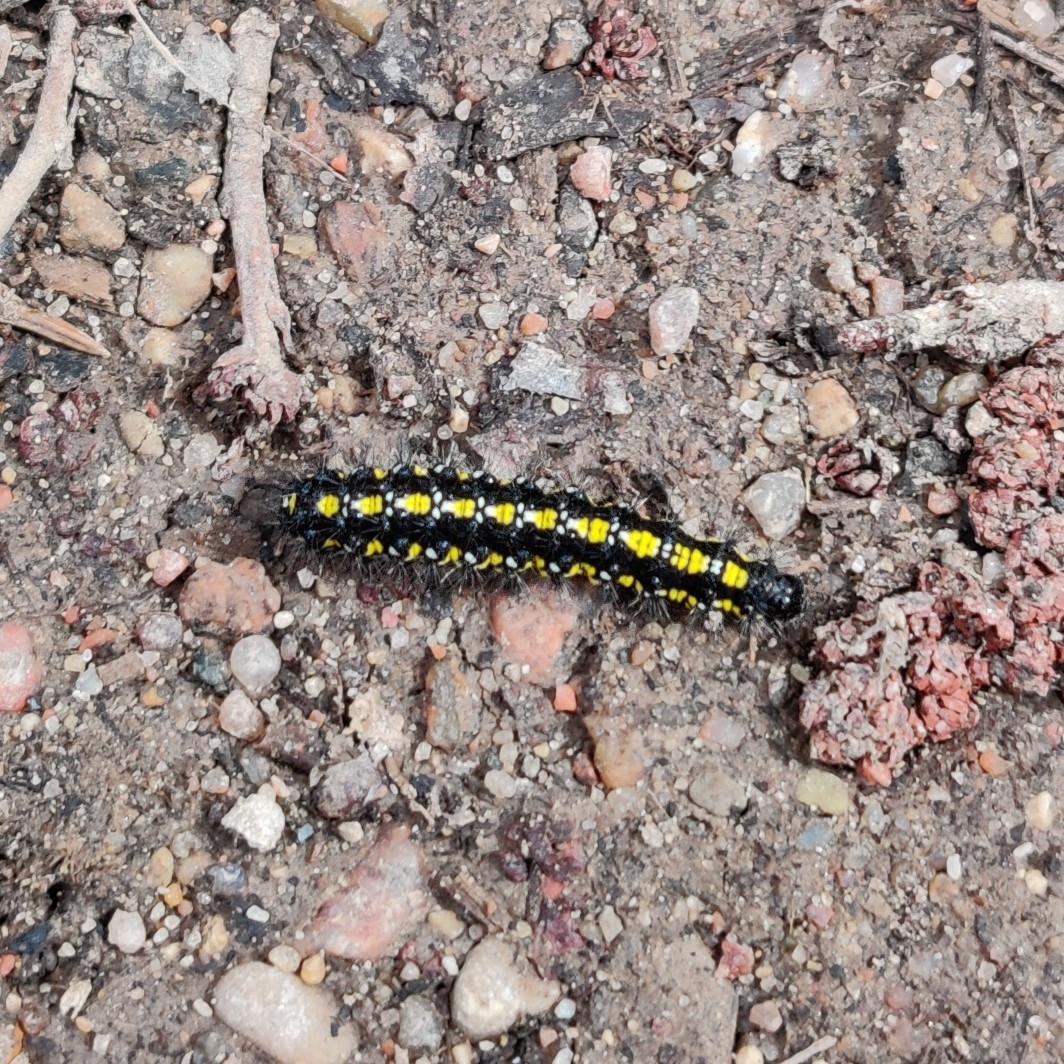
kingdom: Animalia
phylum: Arthropoda
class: Insecta
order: Lepidoptera
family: Erebidae
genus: Callimorpha
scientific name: Callimorpha dominula
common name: Scarlet tiger
